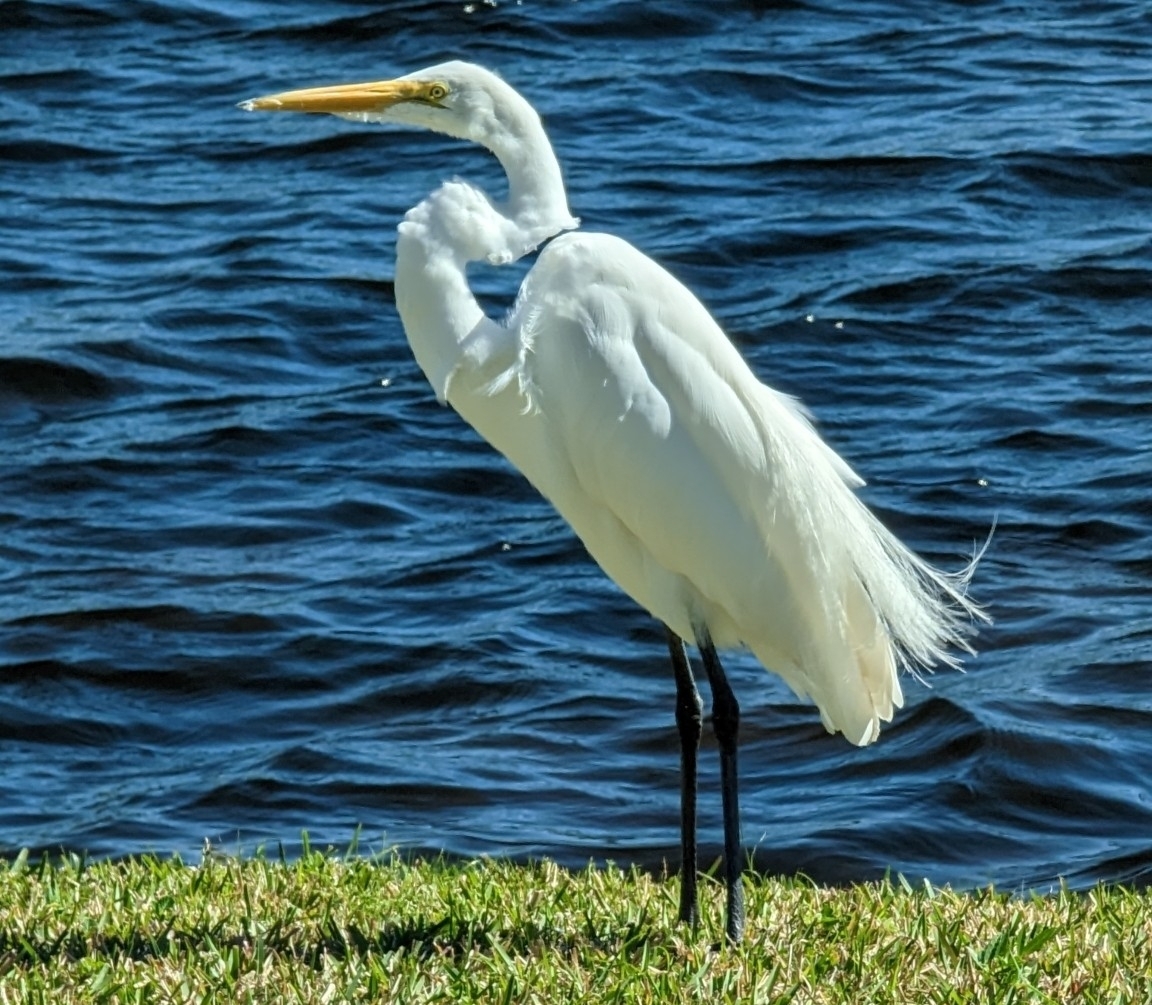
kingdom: Animalia
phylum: Chordata
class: Aves
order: Pelecaniformes
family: Ardeidae
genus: Ardea
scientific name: Ardea alba
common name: Great egret
